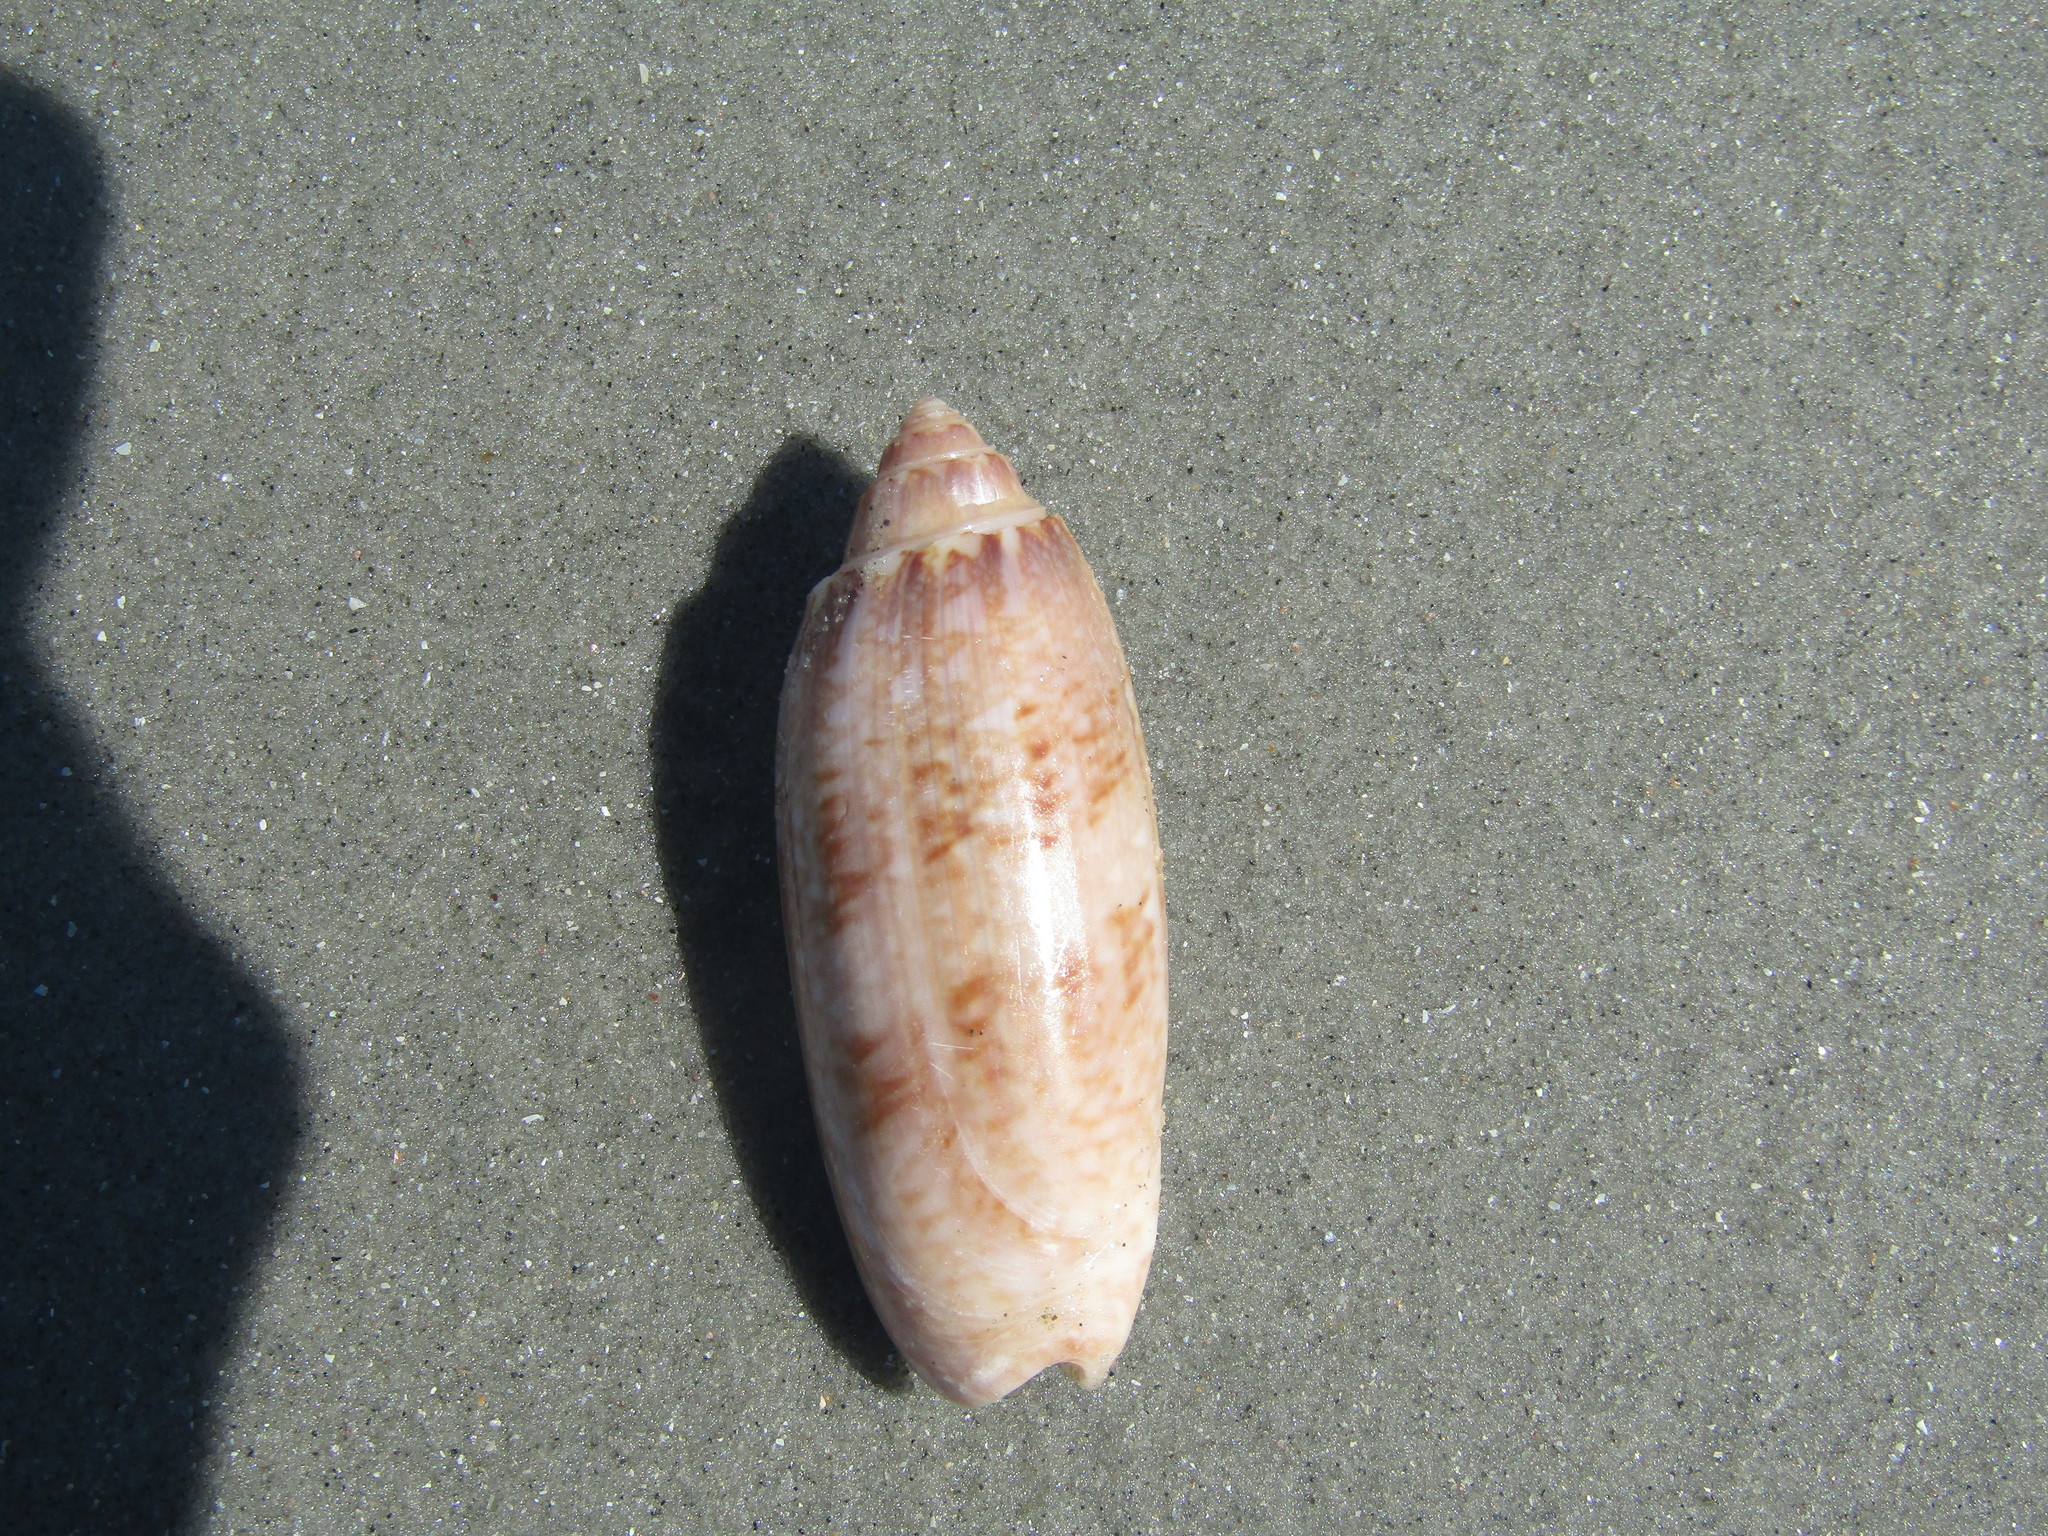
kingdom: Animalia
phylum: Mollusca
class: Gastropoda
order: Neogastropoda
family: Olividae
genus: Oliva
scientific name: Oliva sayana
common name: Lettered olive
